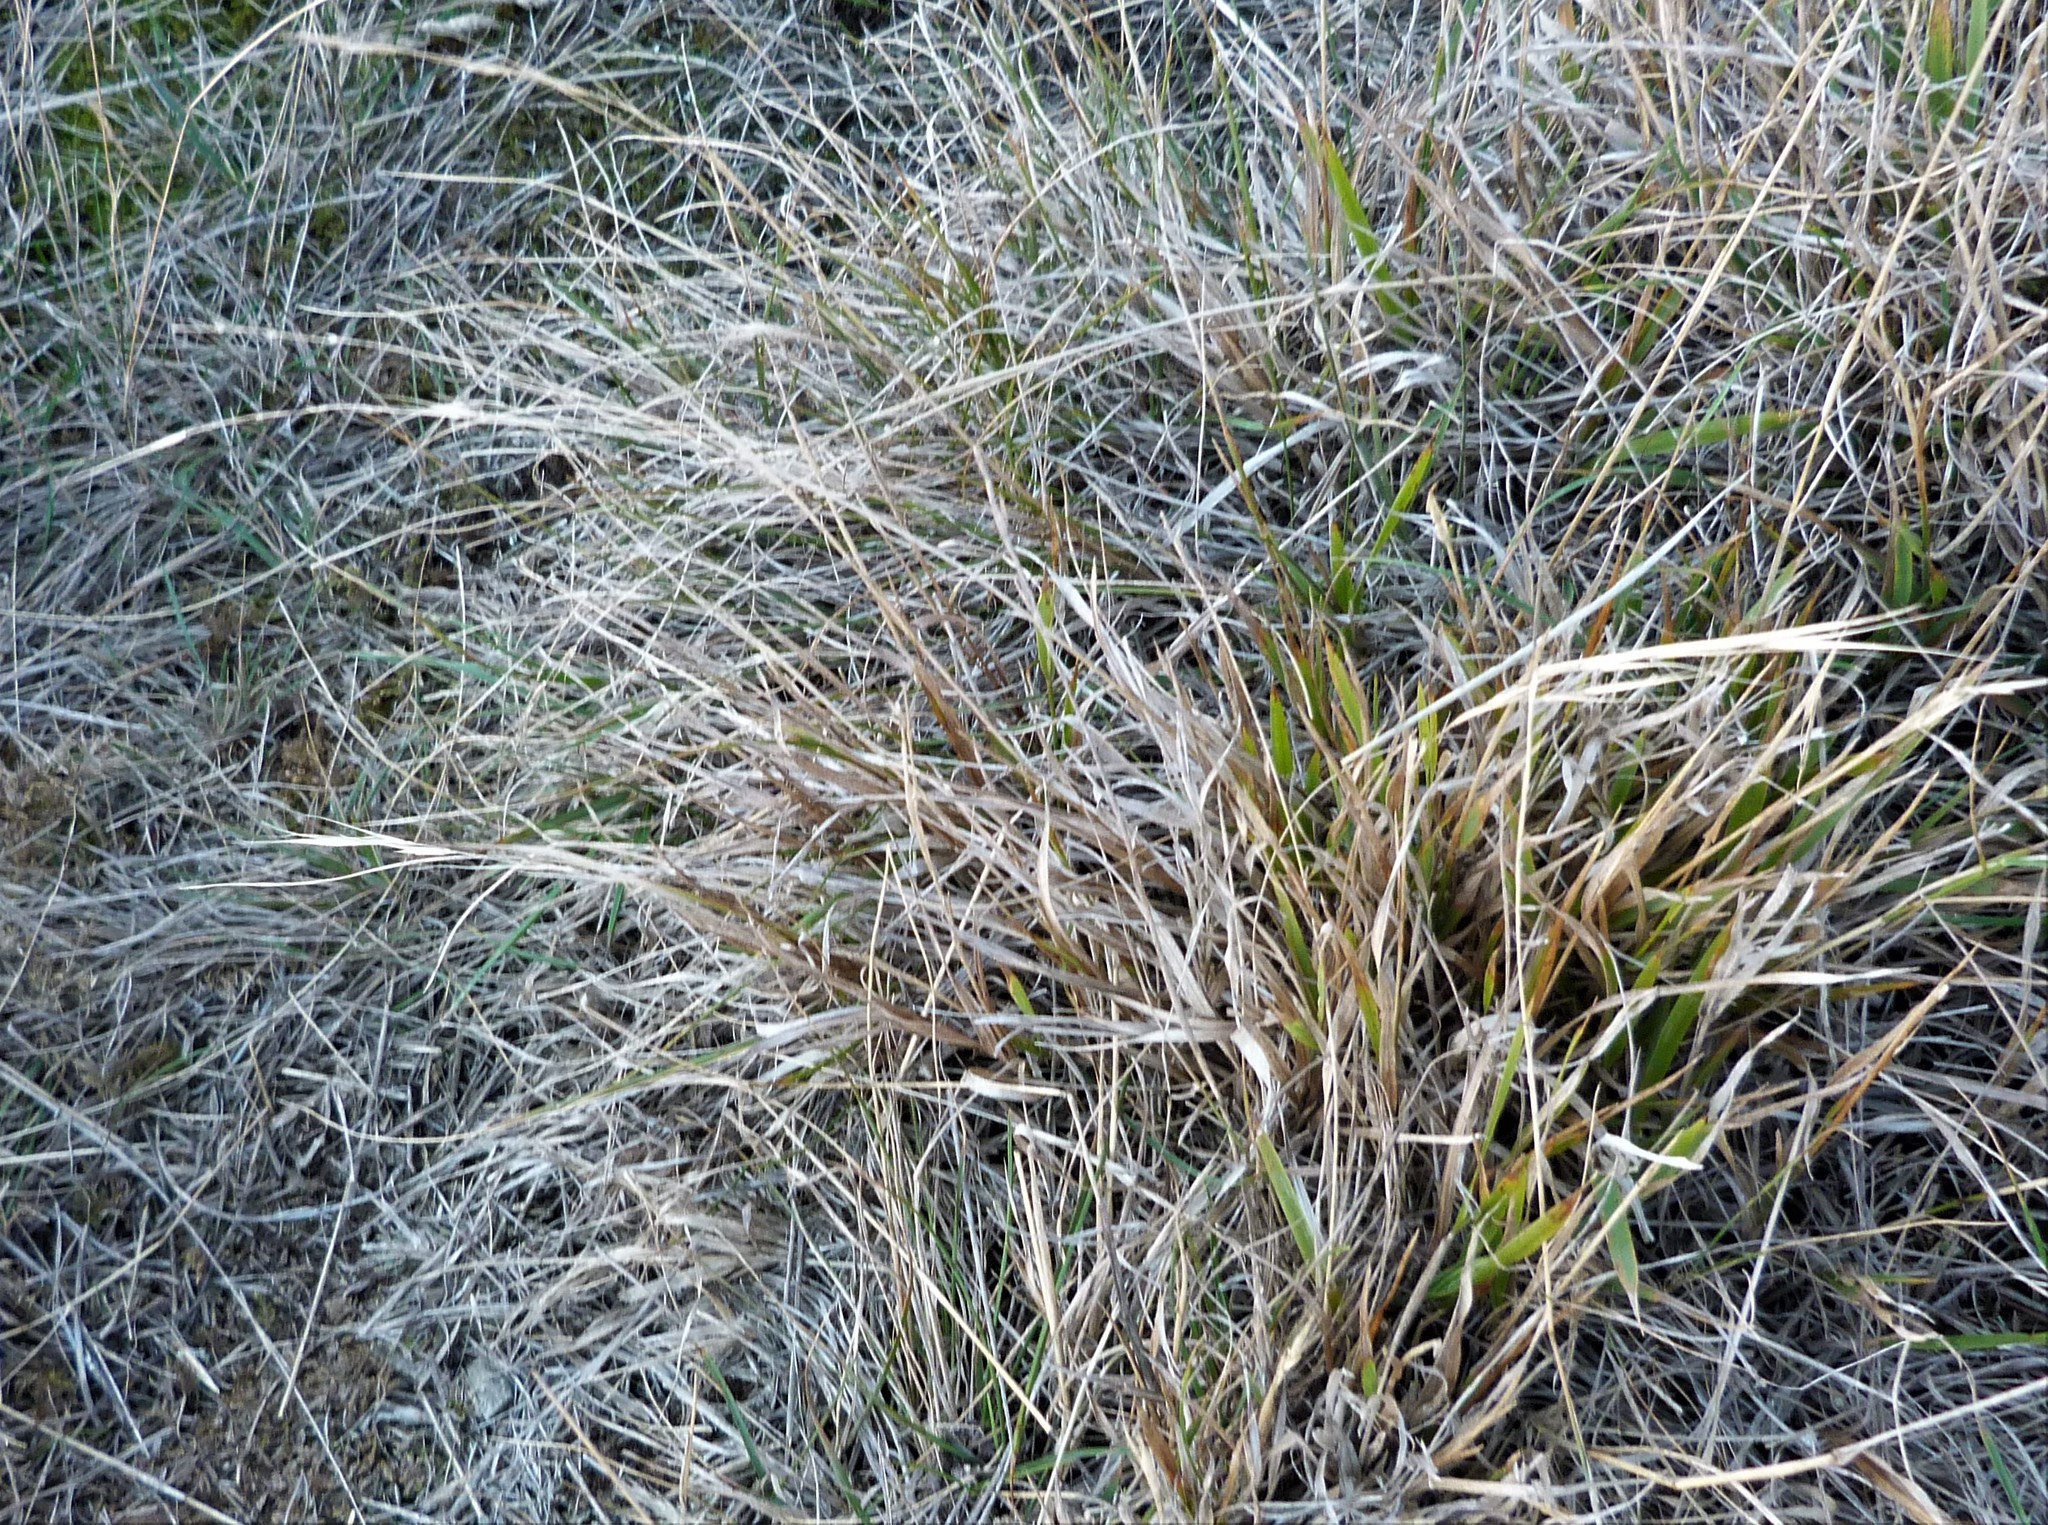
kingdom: Plantae
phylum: Tracheophyta
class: Liliopsida
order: Poales
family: Poaceae
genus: Microlaena
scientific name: Microlaena stipoides
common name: Meadow ricegrass
